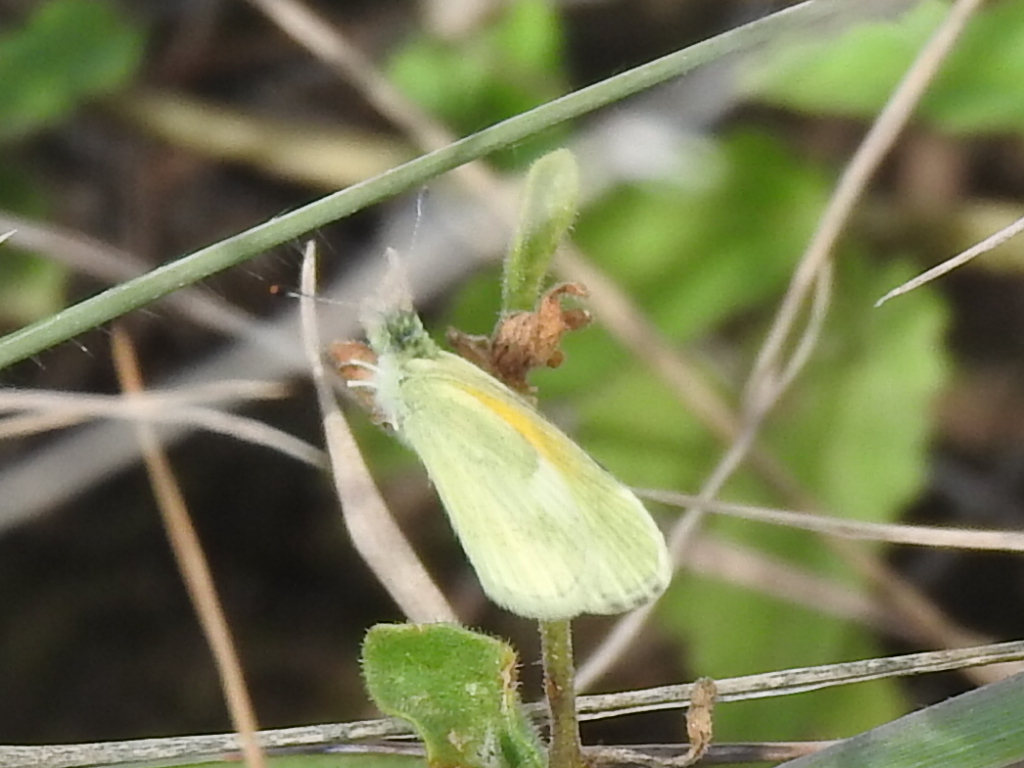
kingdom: Animalia
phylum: Arthropoda
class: Insecta
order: Lepidoptera
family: Pieridae
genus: Nathalis
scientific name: Nathalis iole
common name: Dainty sulphur
